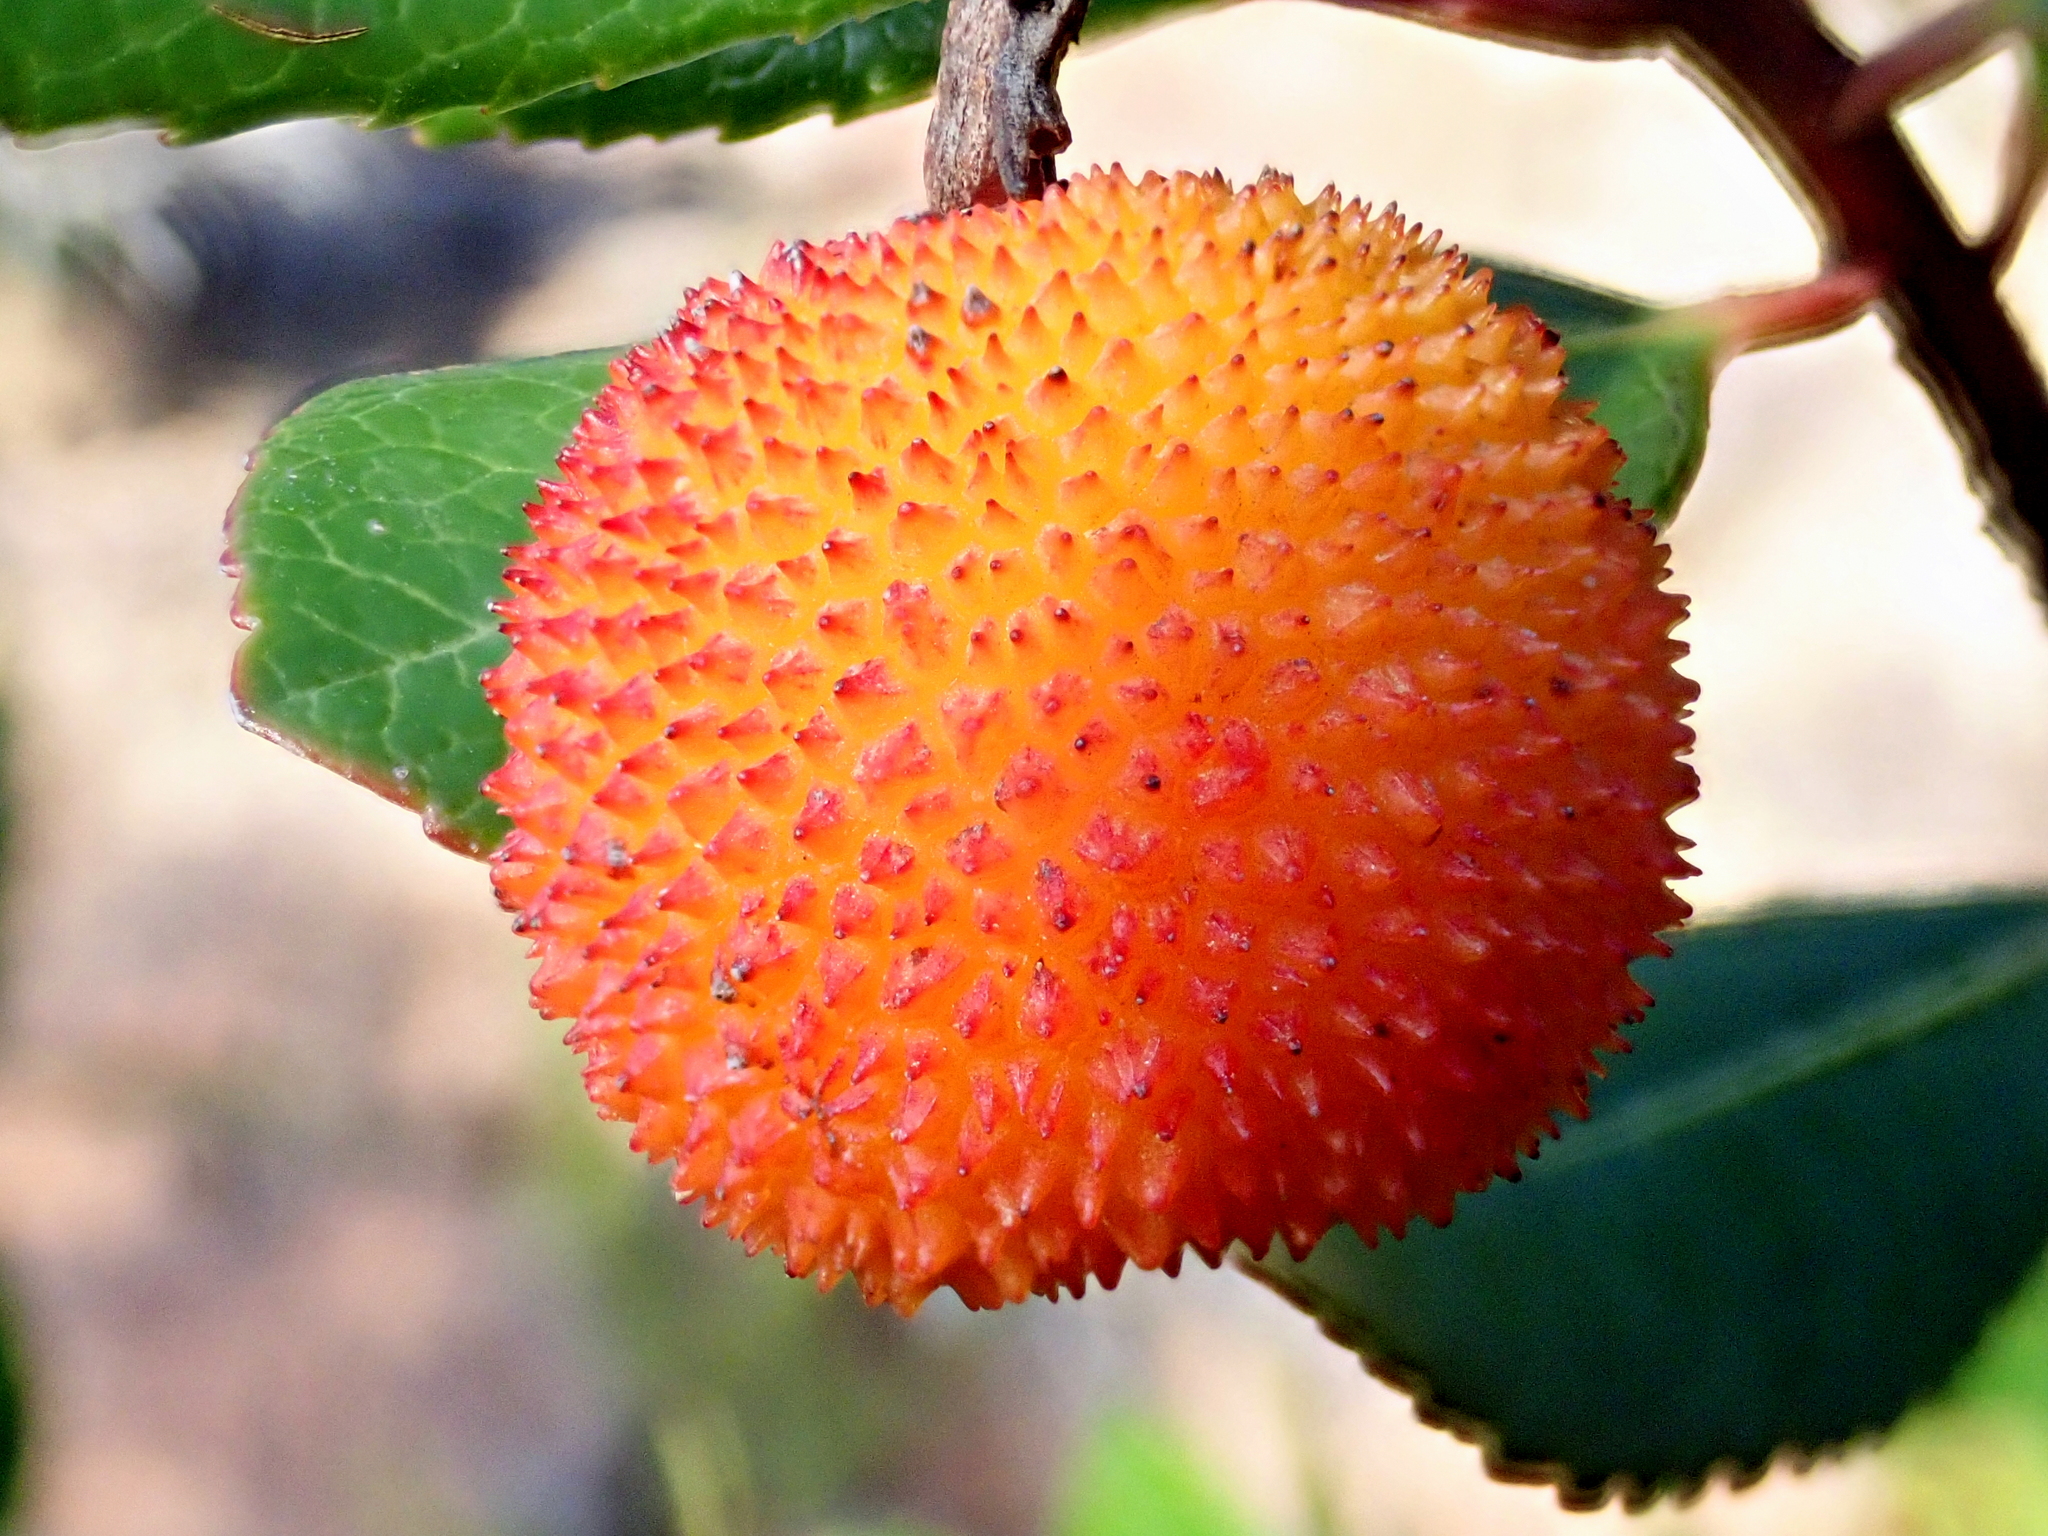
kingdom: Plantae
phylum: Tracheophyta
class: Magnoliopsida
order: Ericales
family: Ericaceae
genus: Arbutus
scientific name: Arbutus unedo
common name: Strawberry-tree
